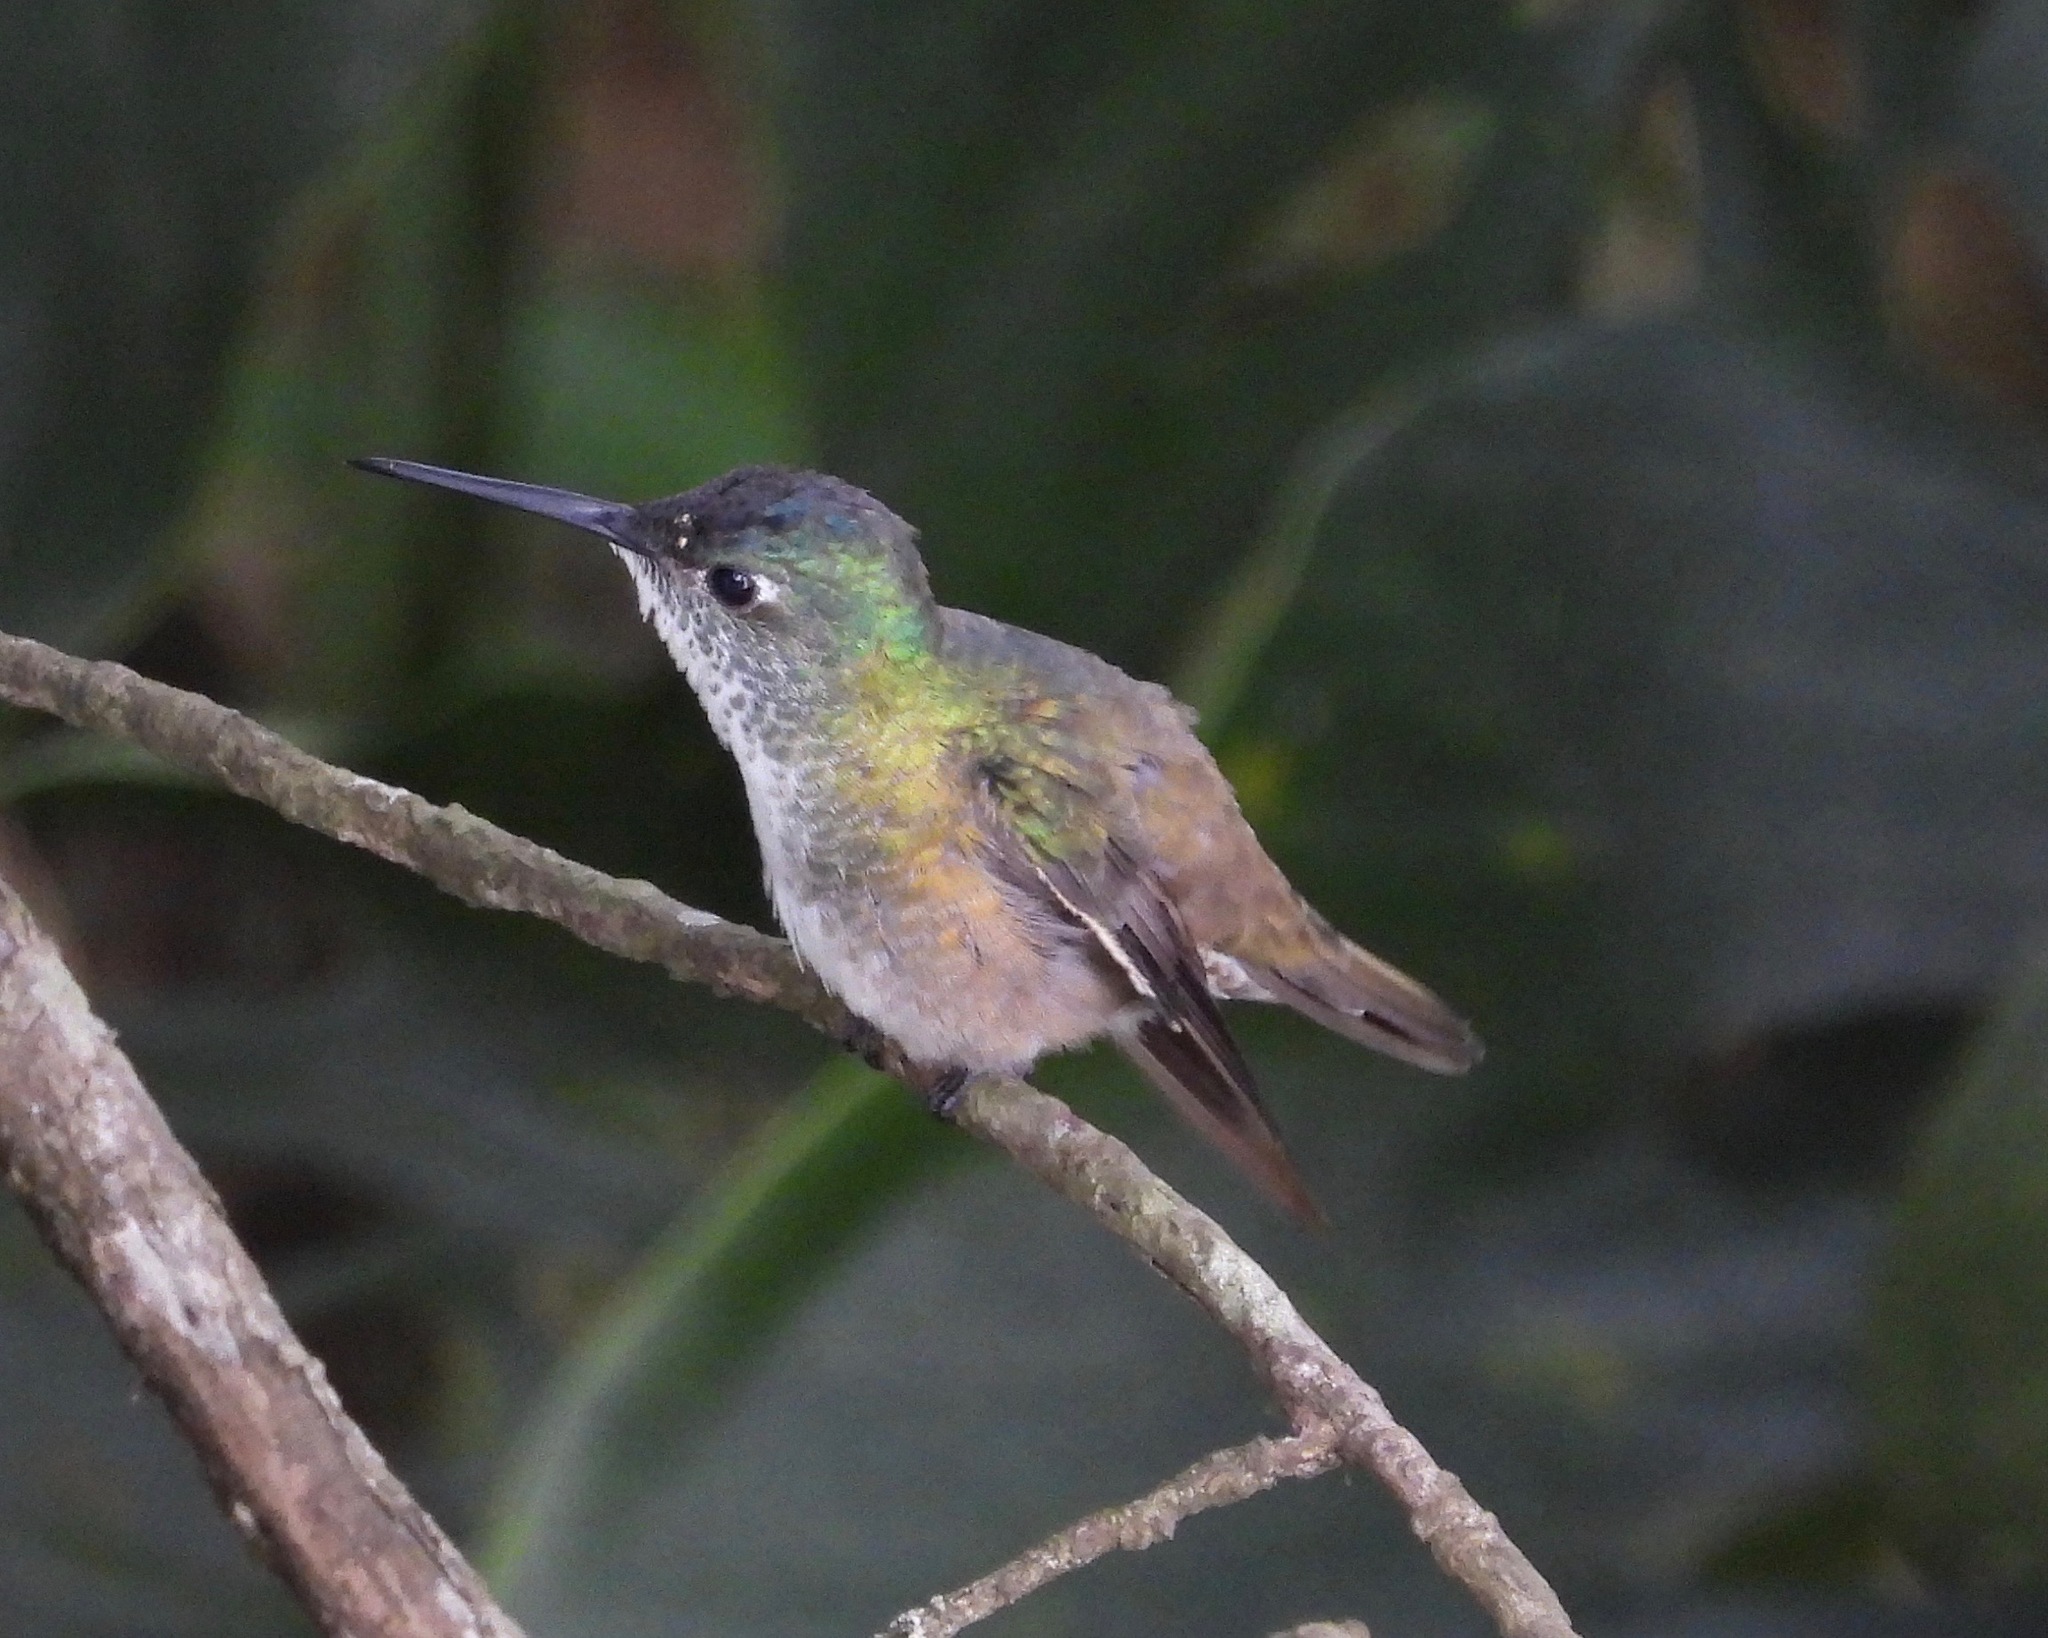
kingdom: Animalia
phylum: Chordata
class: Aves
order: Apodiformes
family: Trochilidae
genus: Saucerottia
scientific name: Saucerottia cyanocephala
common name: Azure-crowned hummingbird
